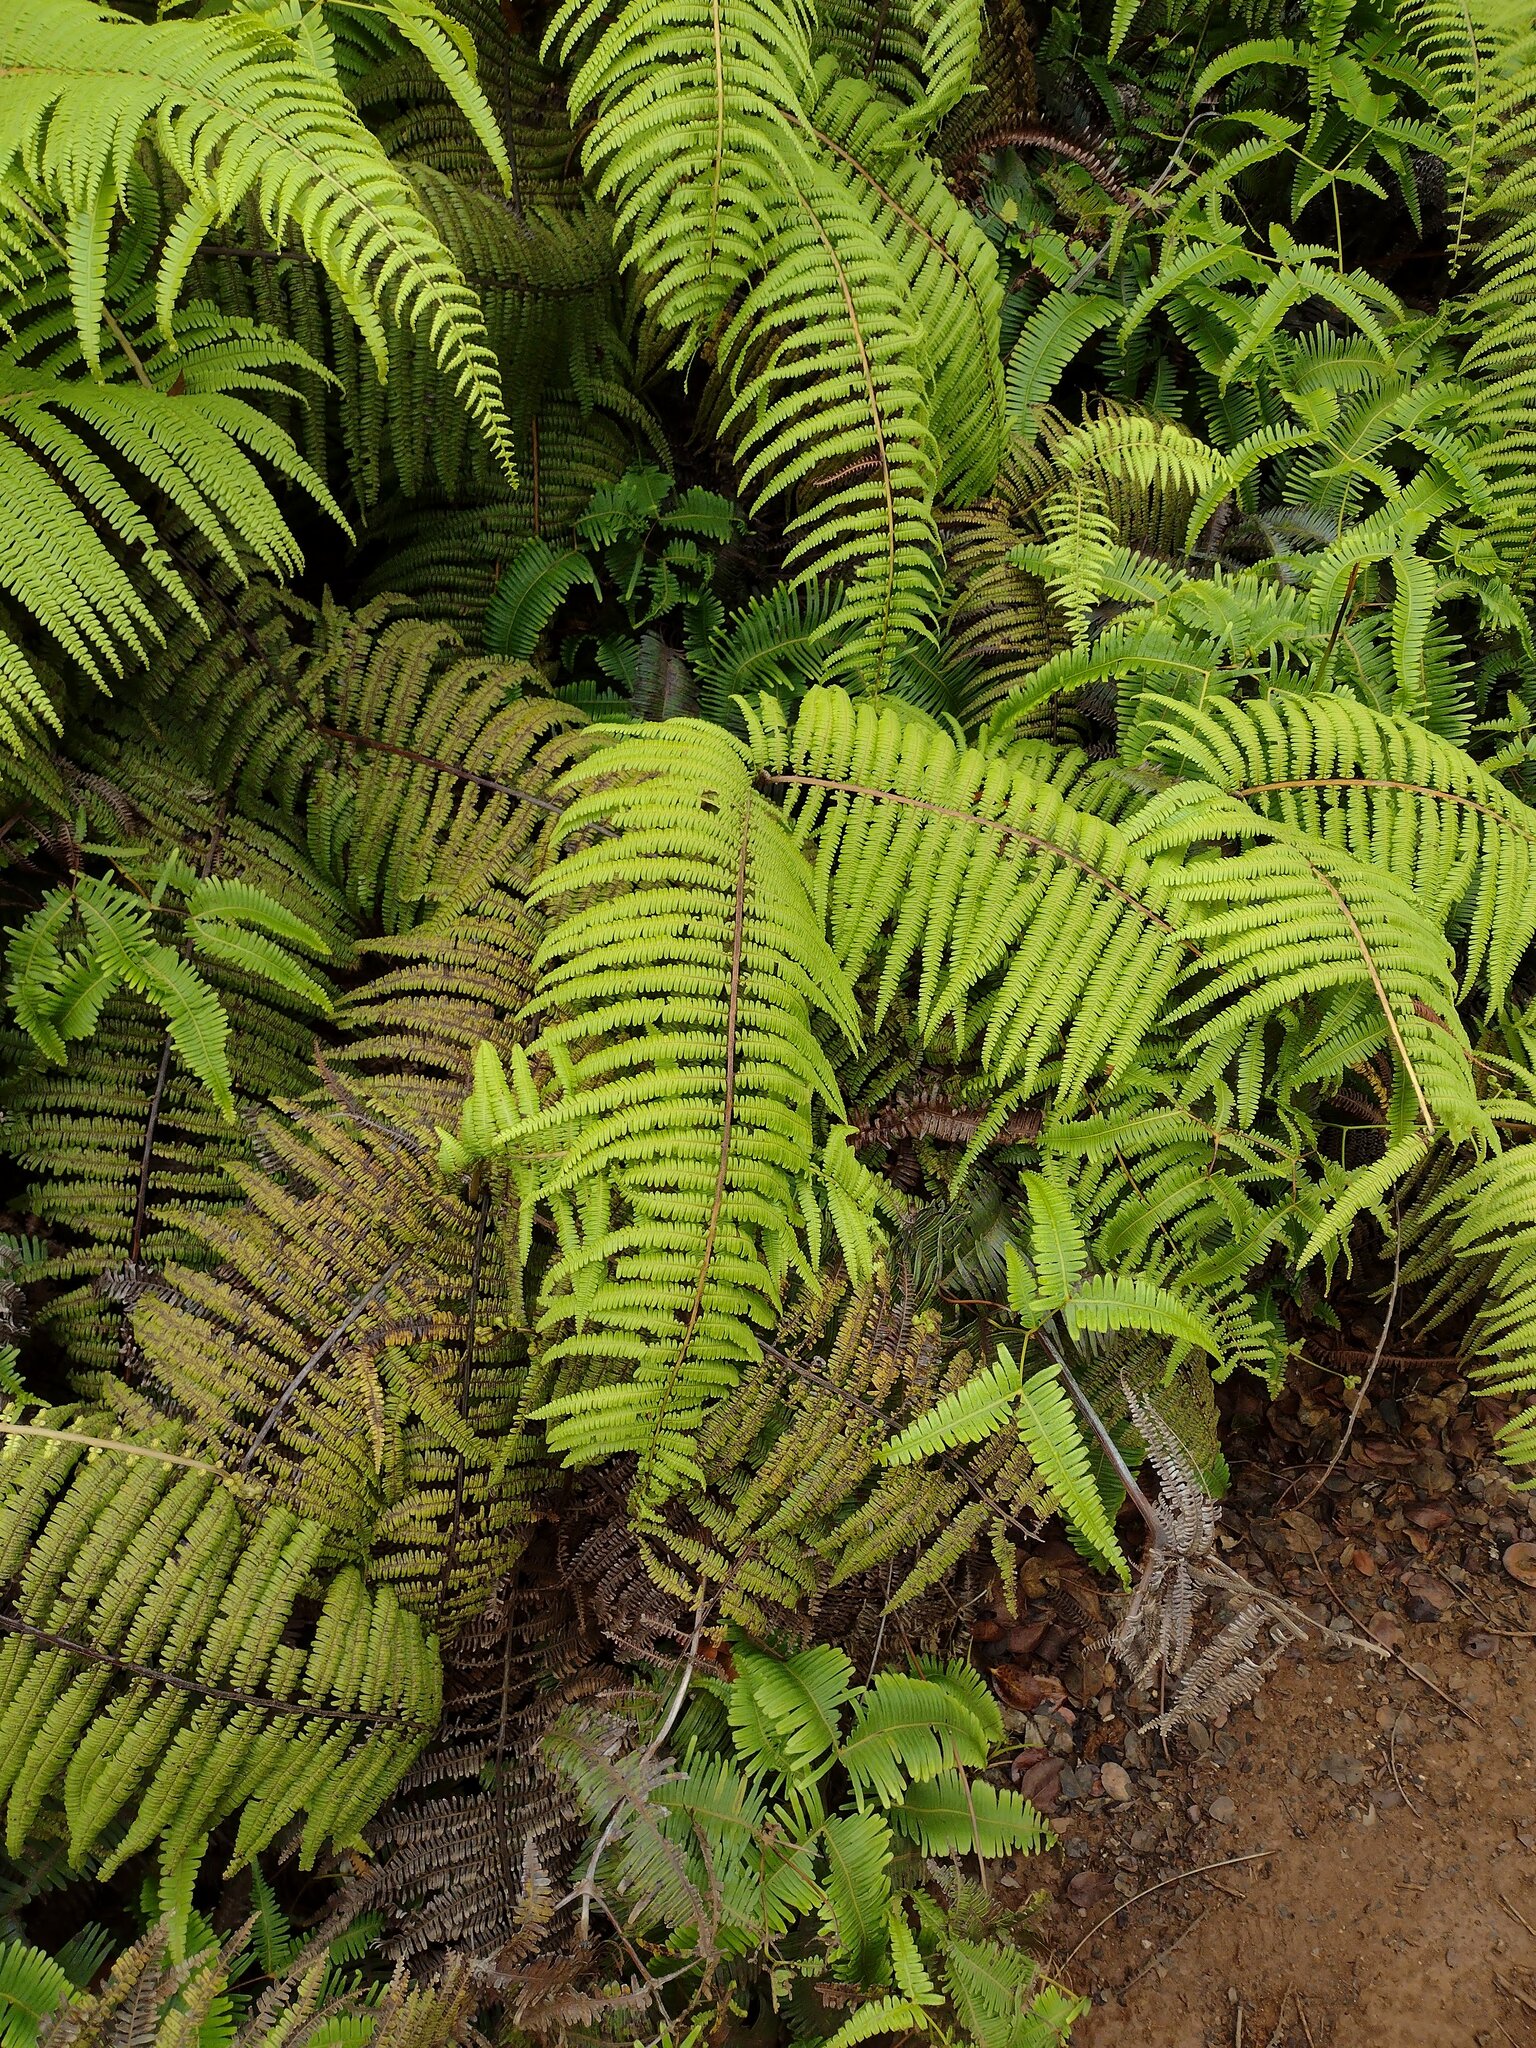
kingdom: Plantae
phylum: Tracheophyta
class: Polypodiopsida
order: Gleicheniales
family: Gleicheniaceae
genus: Diplopterygium
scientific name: Diplopterygium pinnatum
